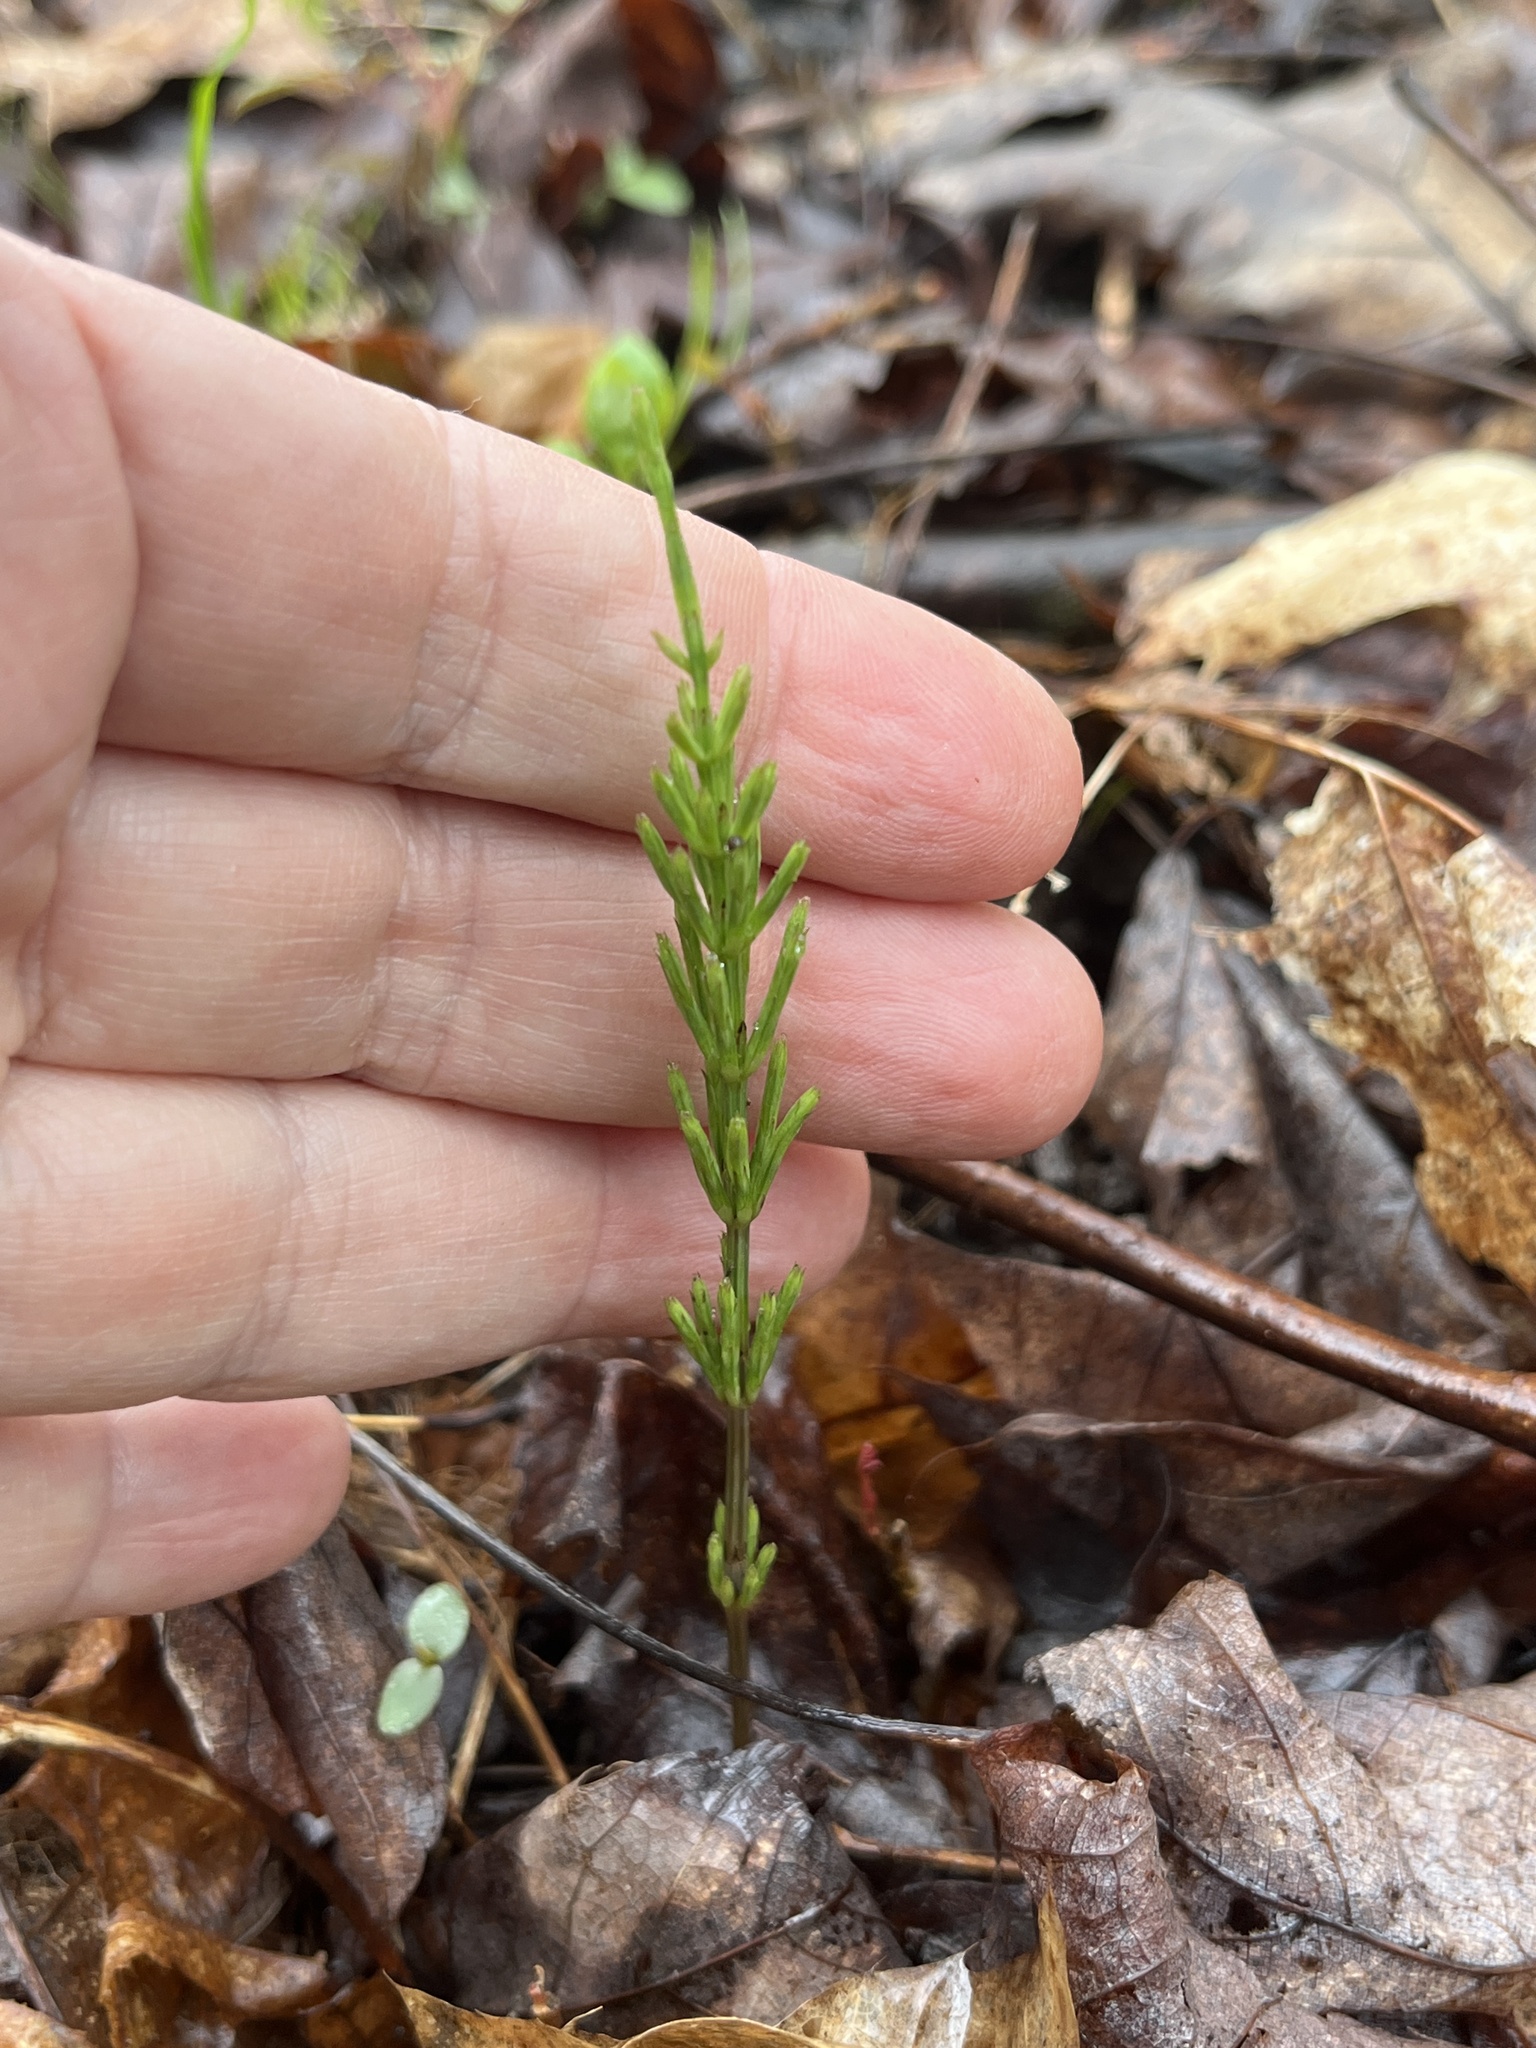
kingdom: Plantae
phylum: Tracheophyta
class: Polypodiopsida
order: Equisetales
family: Equisetaceae
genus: Equisetum
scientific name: Equisetum arvense
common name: Field horsetail
